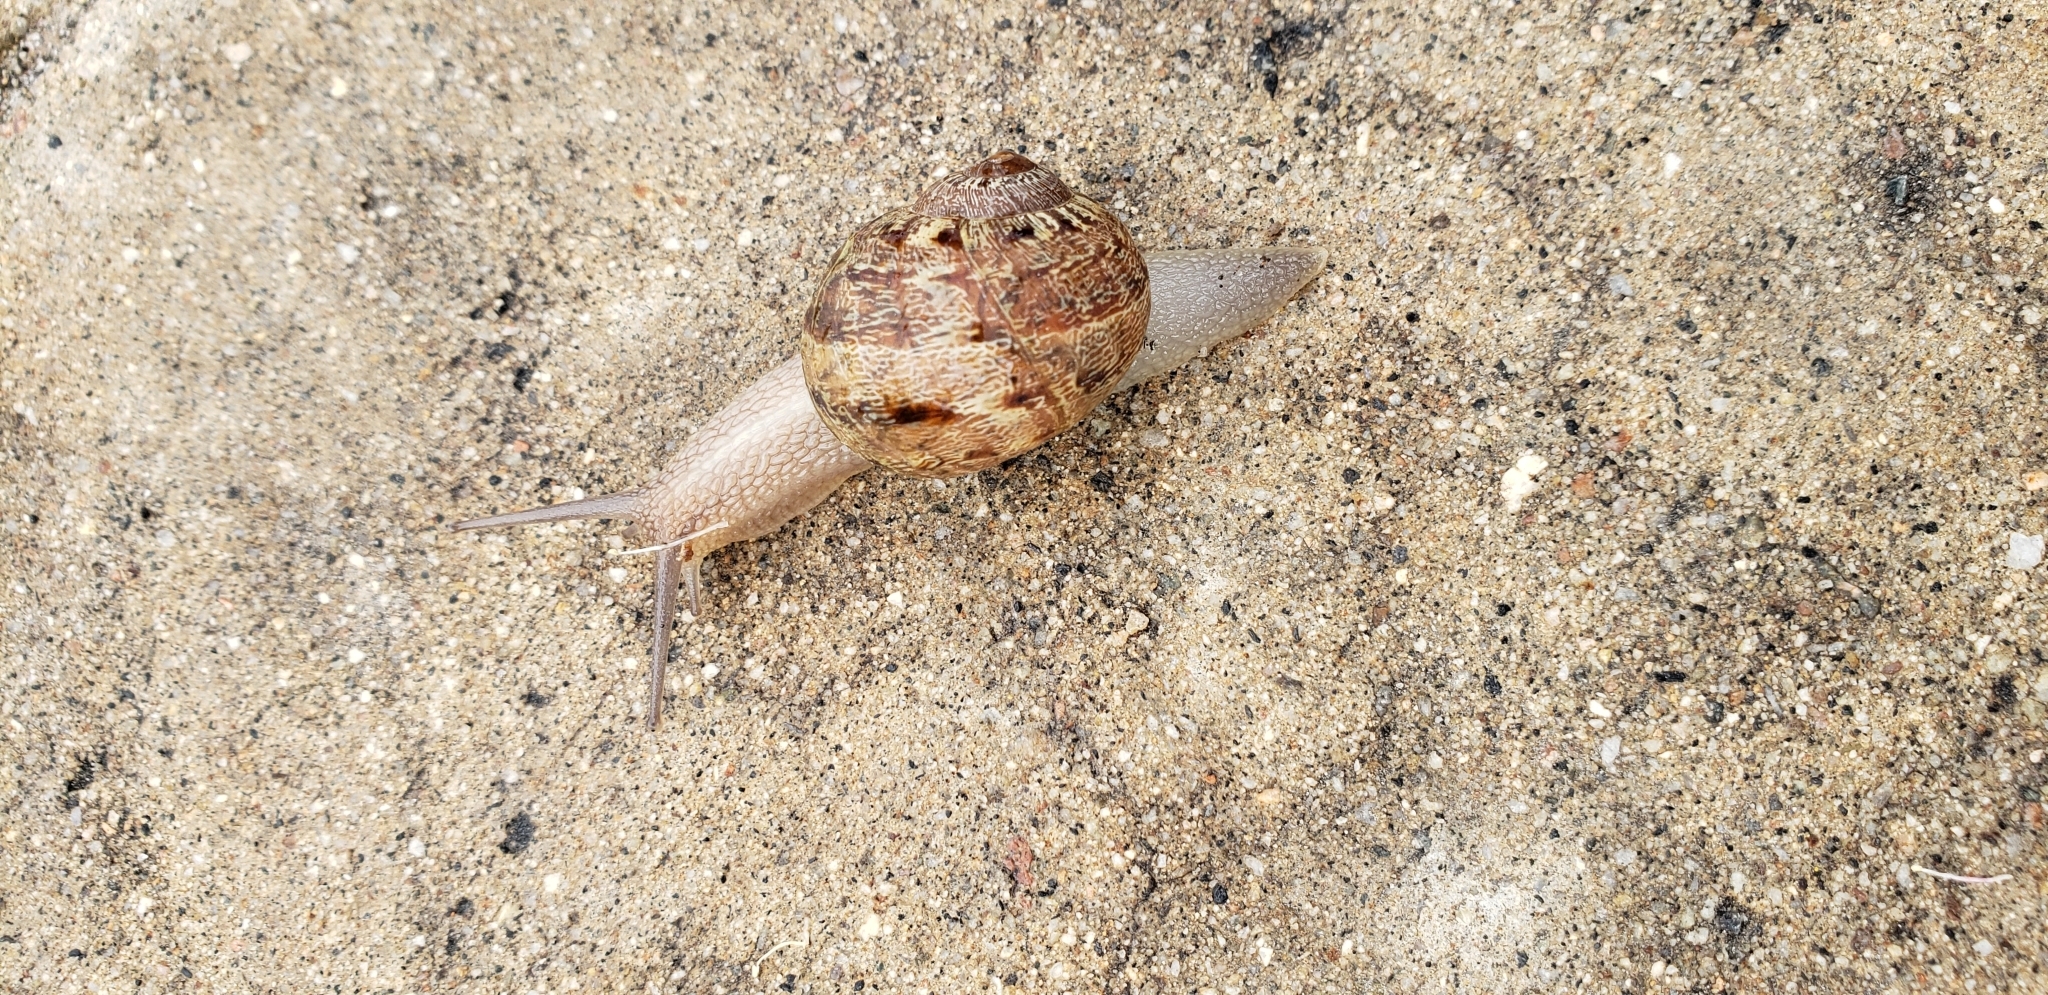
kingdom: Animalia
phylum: Mollusca
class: Gastropoda
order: Stylommatophora
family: Helicidae
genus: Cornu
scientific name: Cornu aspersum
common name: Brown garden snail
